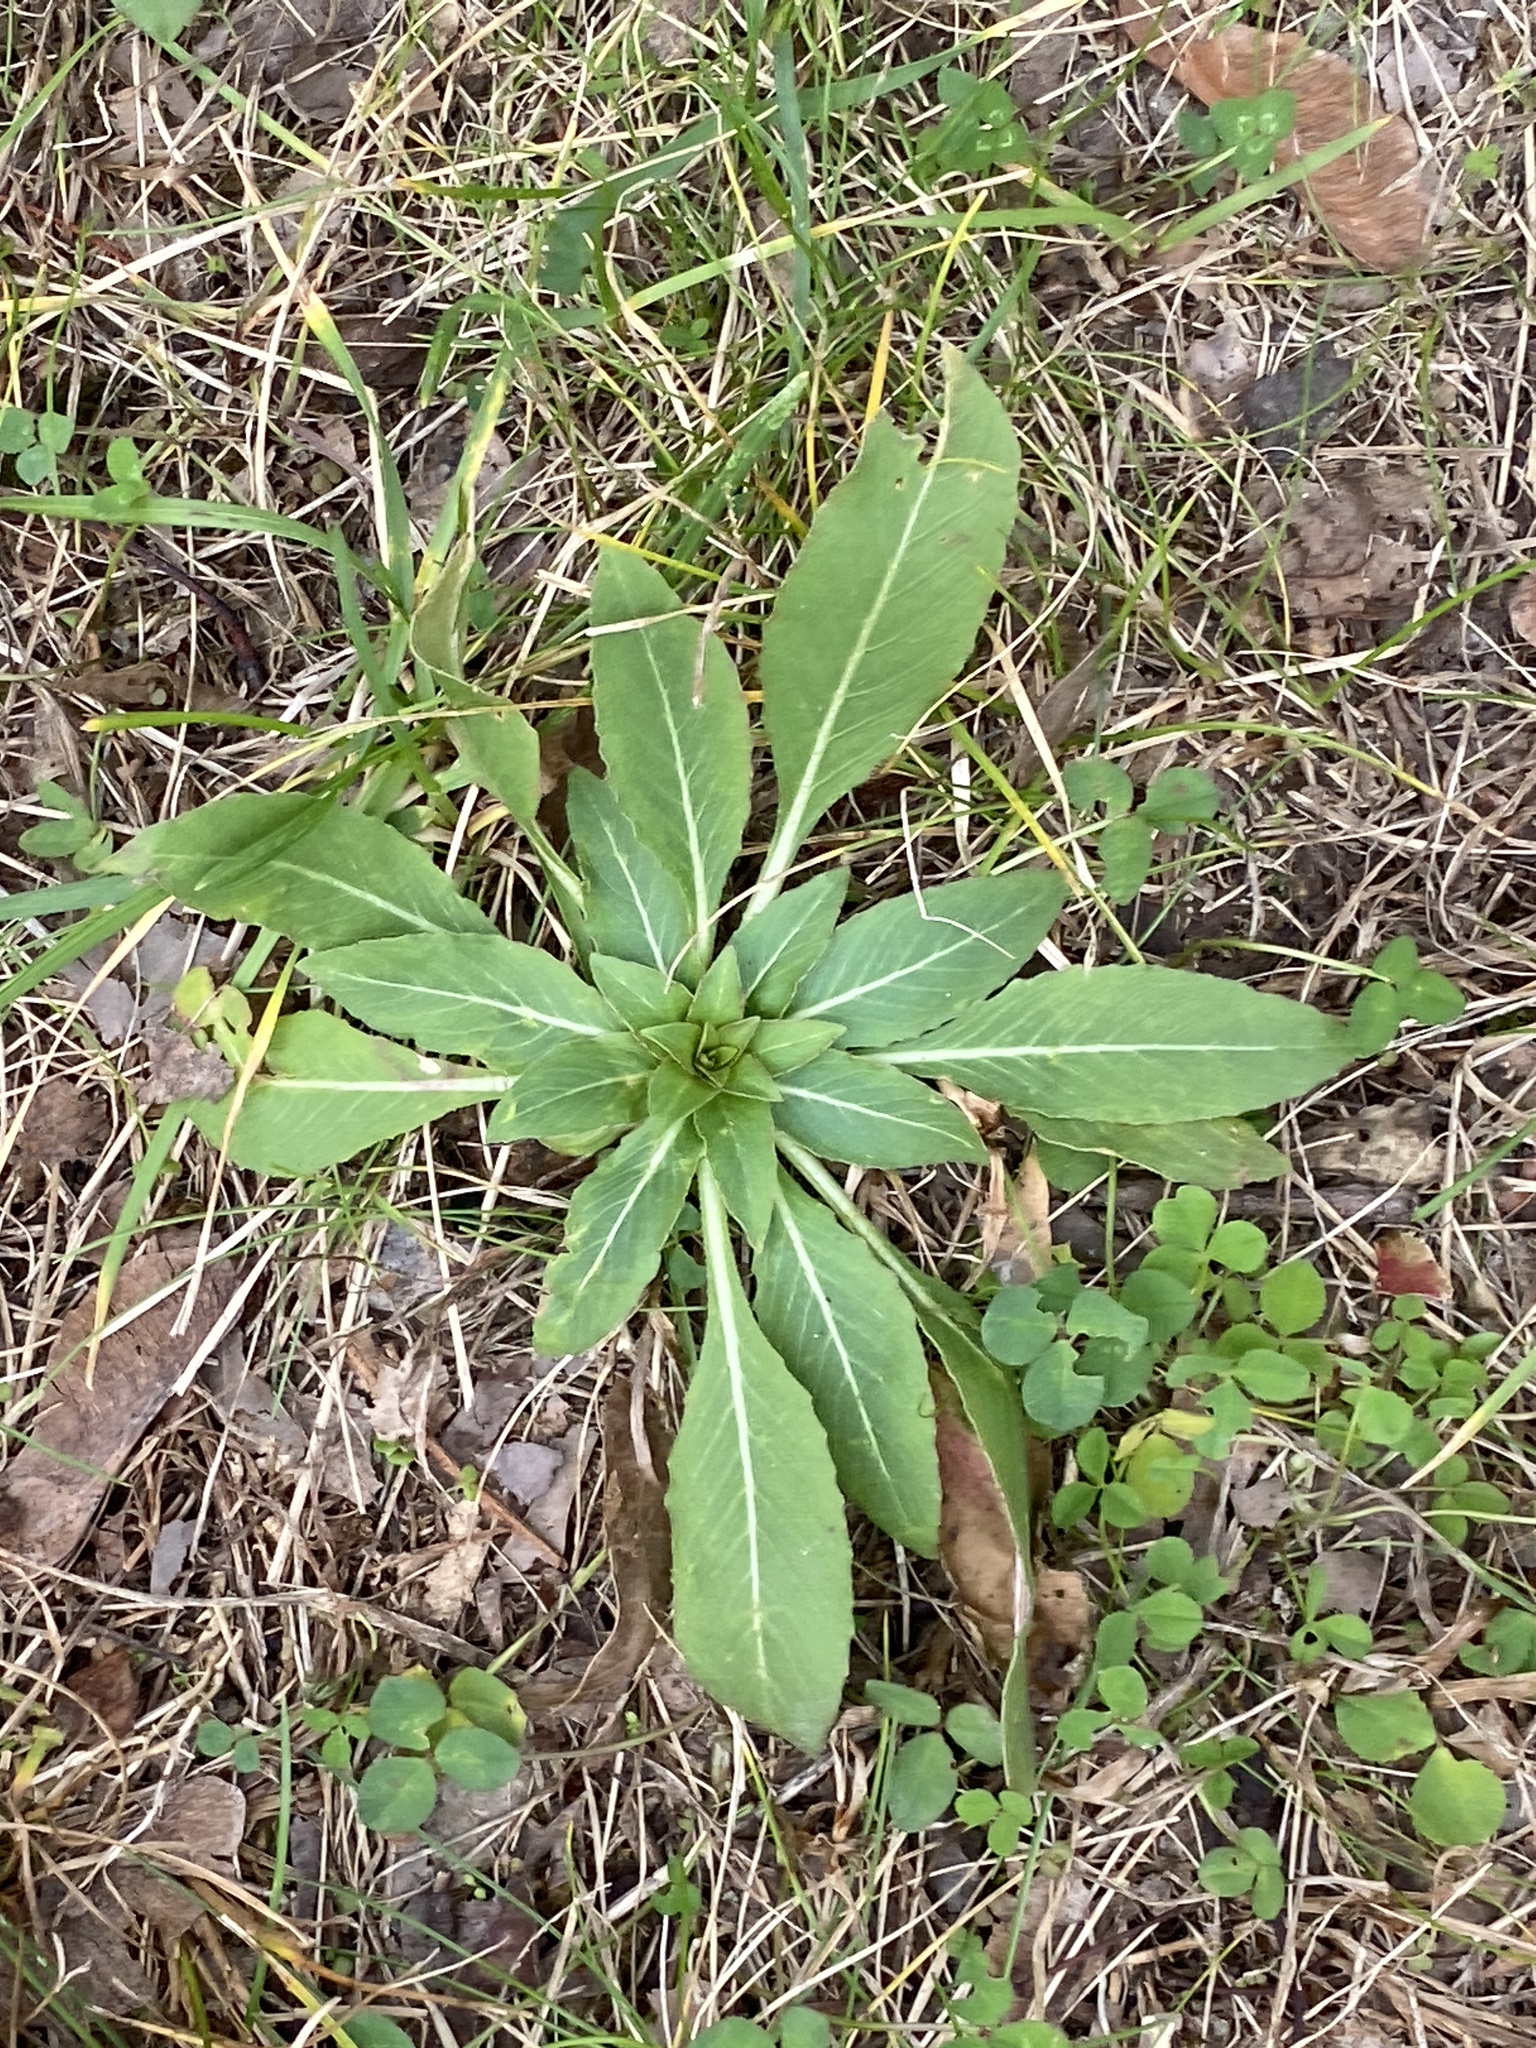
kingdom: Plantae
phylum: Tracheophyta
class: Magnoliopsida
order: Myrtales
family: Onagraceae
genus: Oenothera
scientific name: Oenothera biennis
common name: Common evening-primrose
